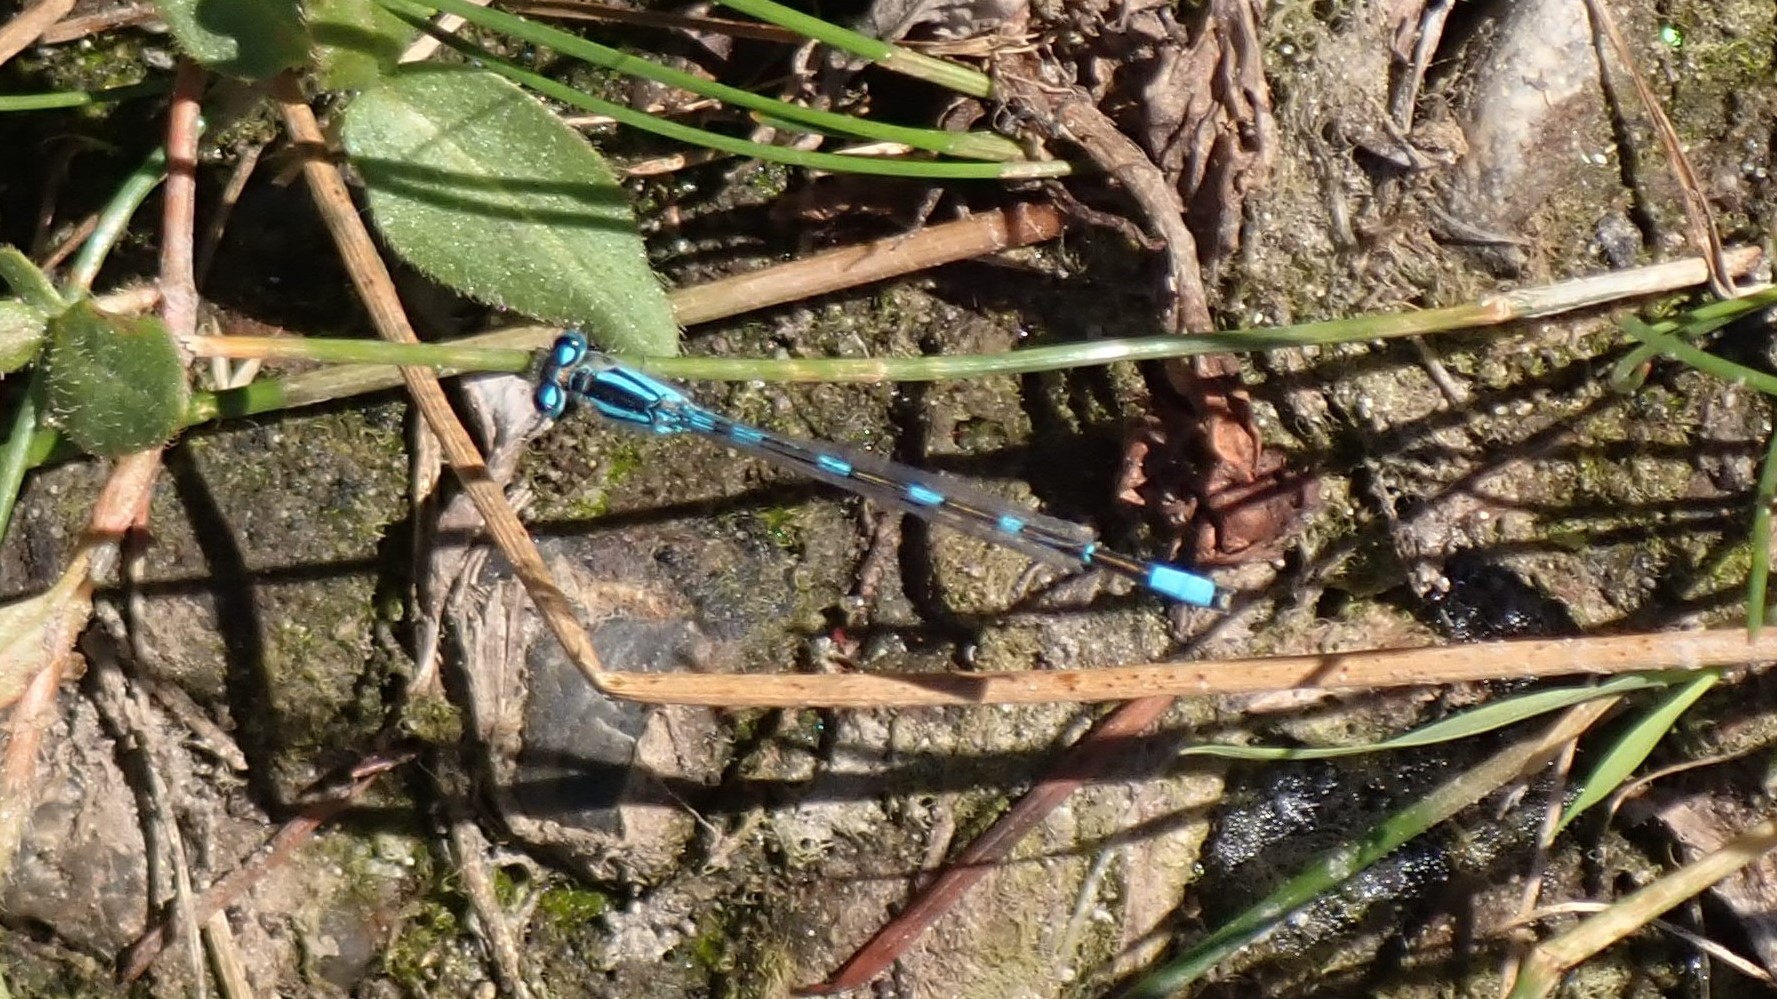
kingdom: Animalia
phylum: Arthropoda
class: Insecta
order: Odonata
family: Coenagrionidae
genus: Enallagma
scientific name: Enallagma carunculatum
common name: Tule bluet
